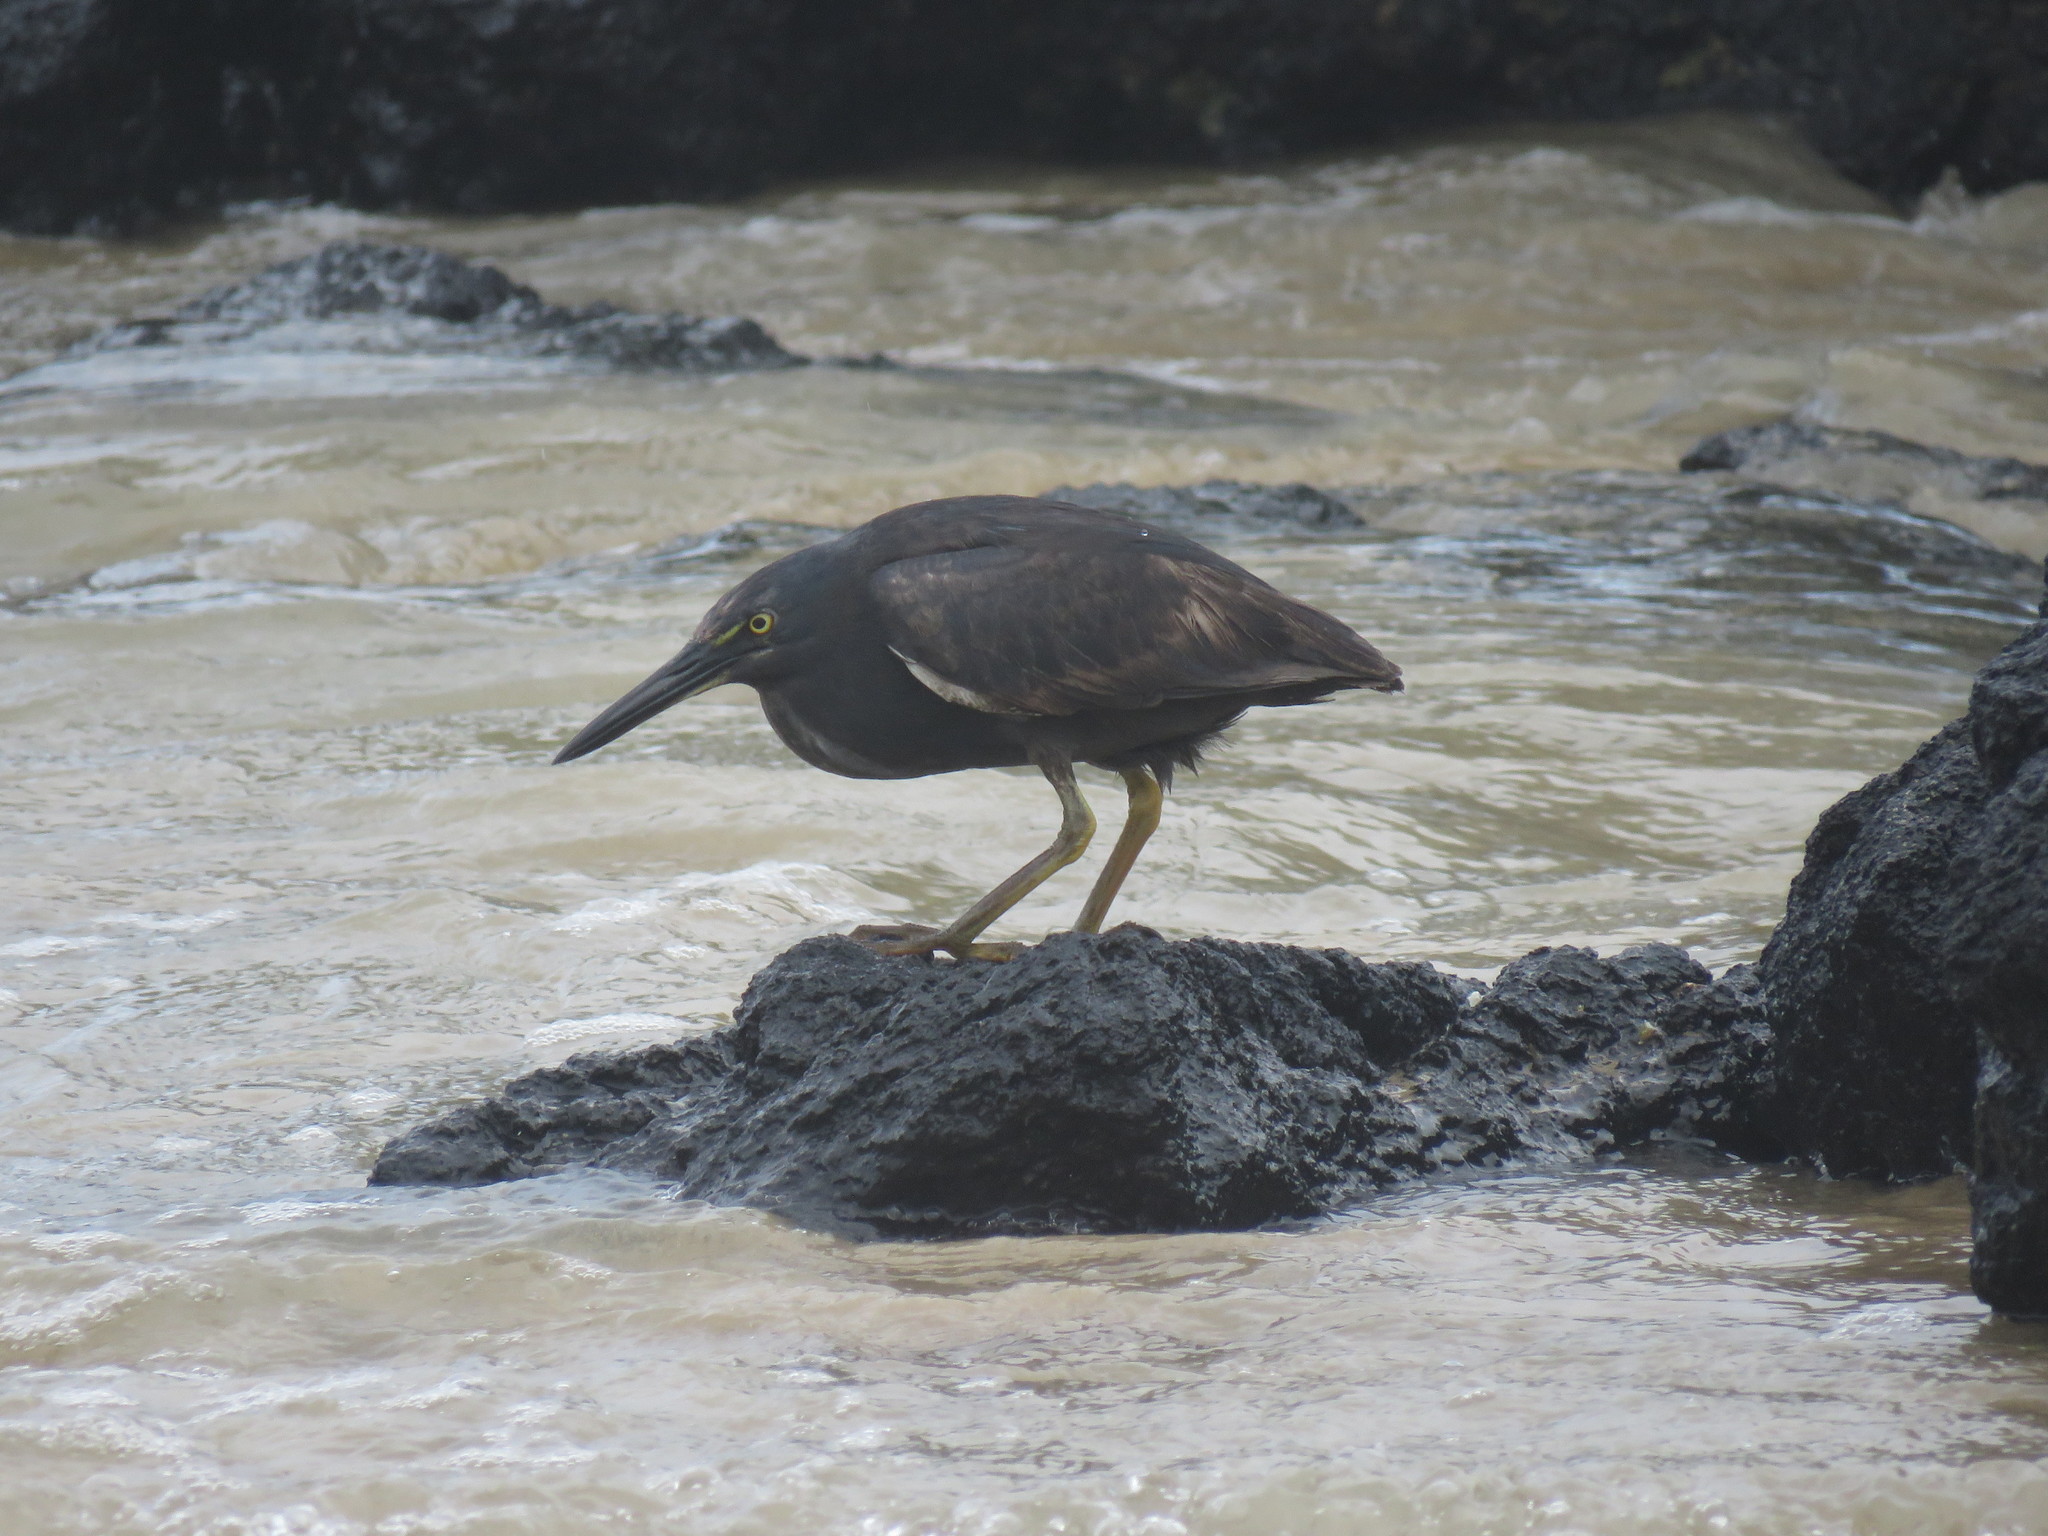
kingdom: Animalia
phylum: Chordata
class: Aves
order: Pelecaniformes
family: Ardeidae
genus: Butorides
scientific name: Butorides striata
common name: Striated heron
